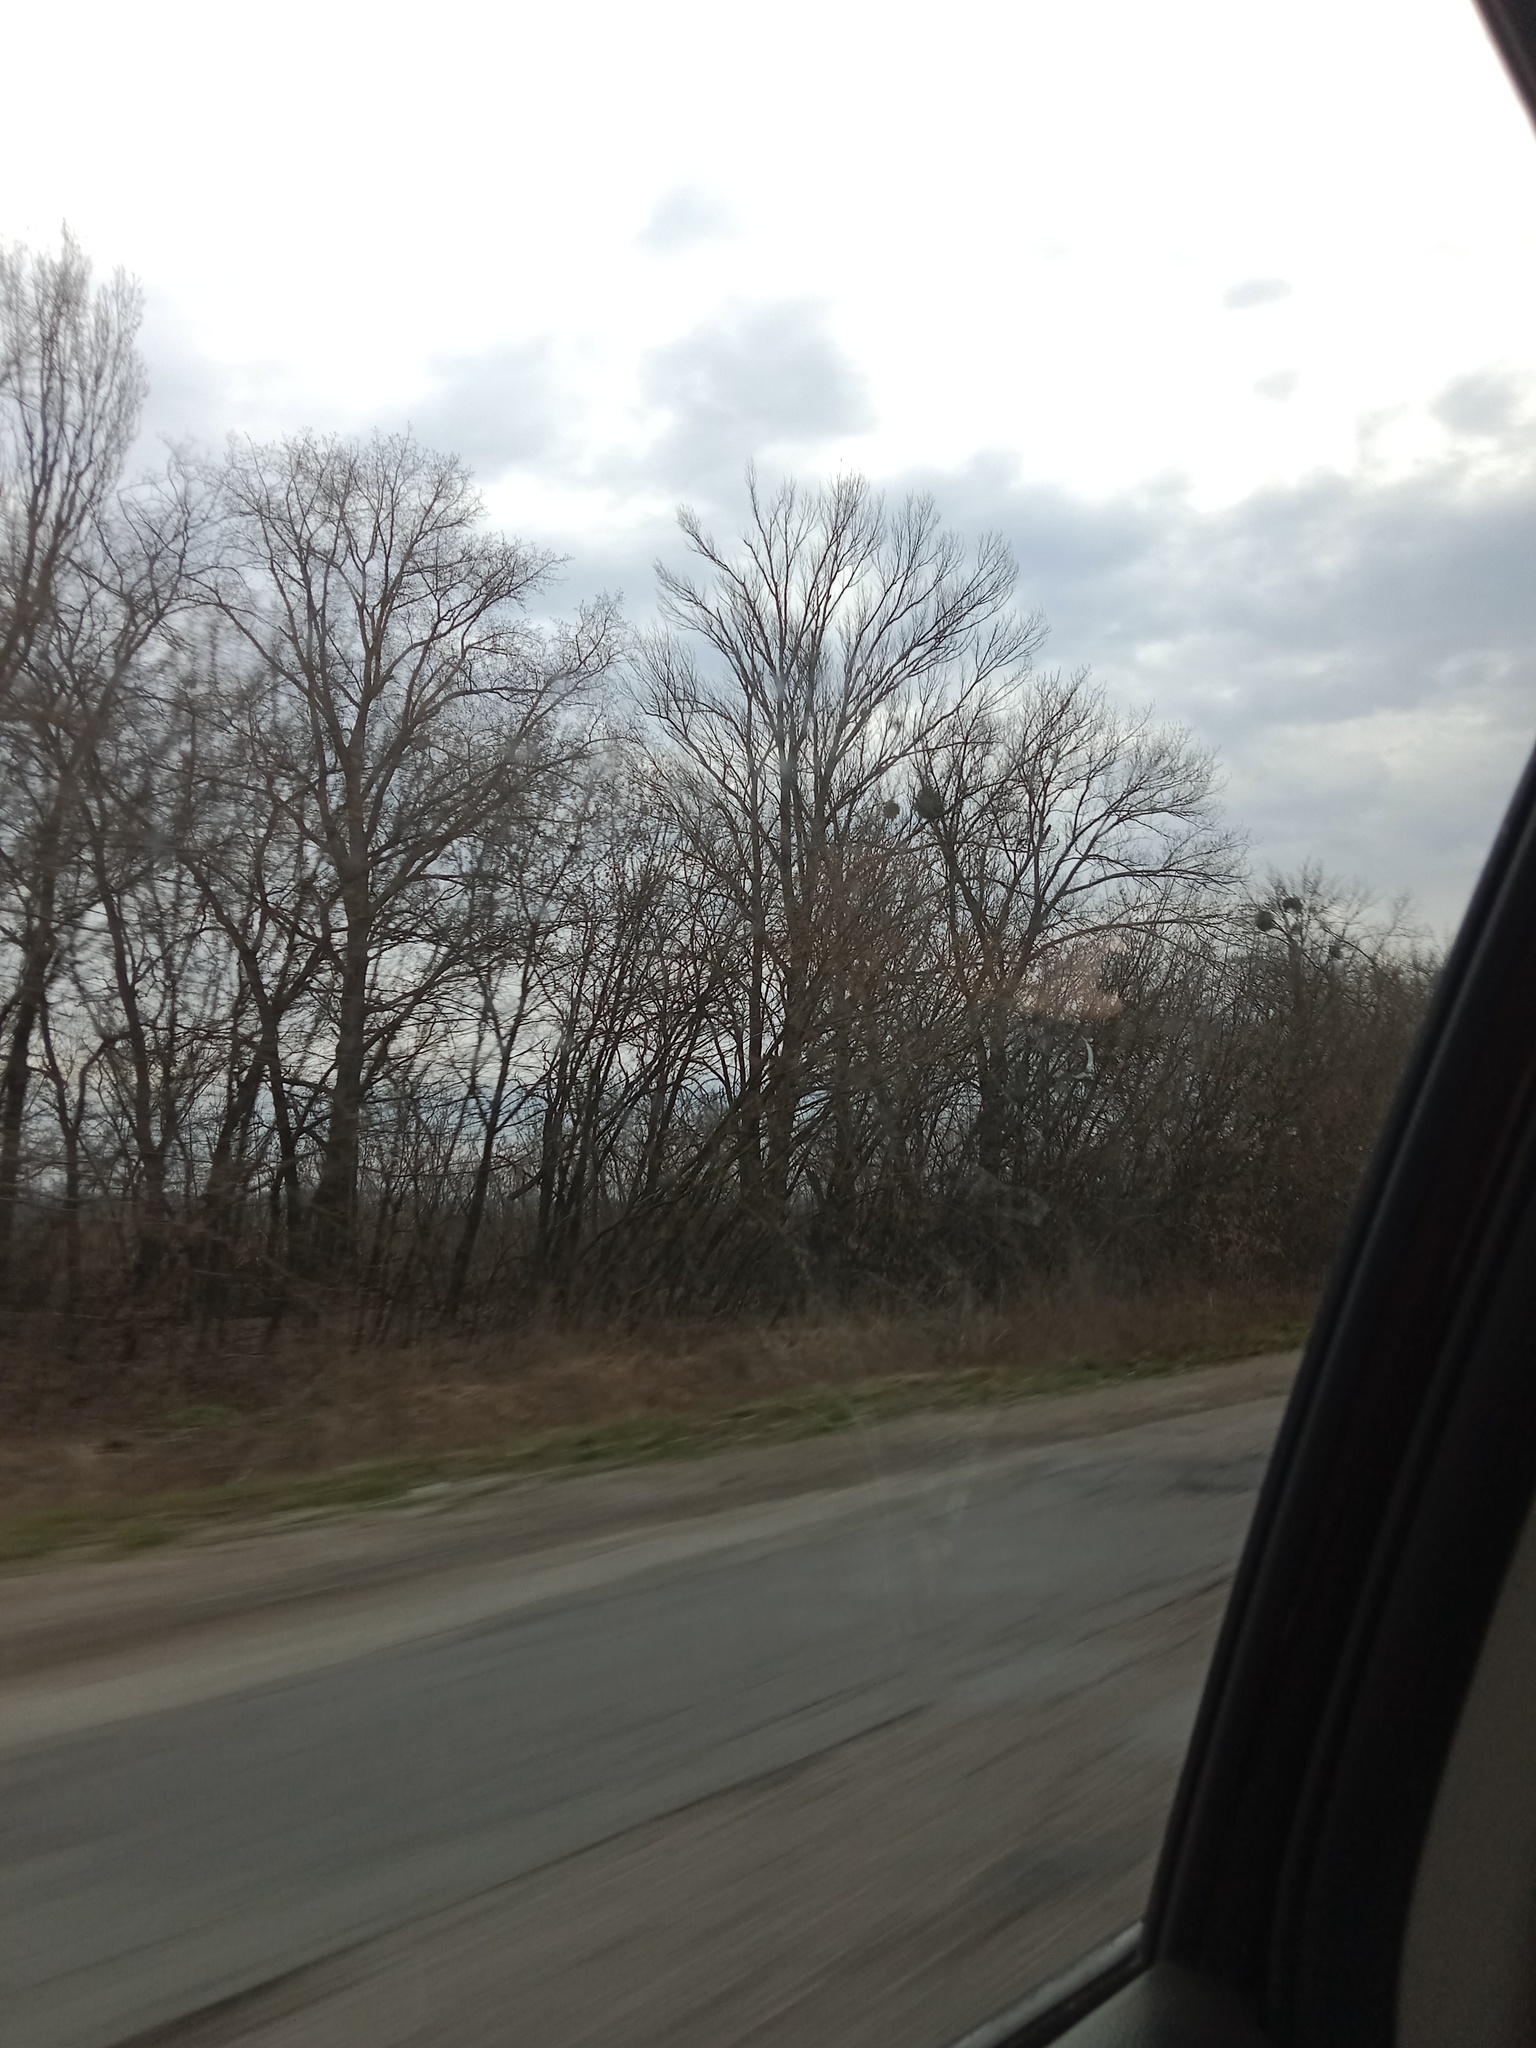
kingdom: Plantae
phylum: Tracheophyta
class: Magnoliopsida
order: Santalales
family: Viscaceae
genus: Viscum
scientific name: Viscum album
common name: Mistletoe
